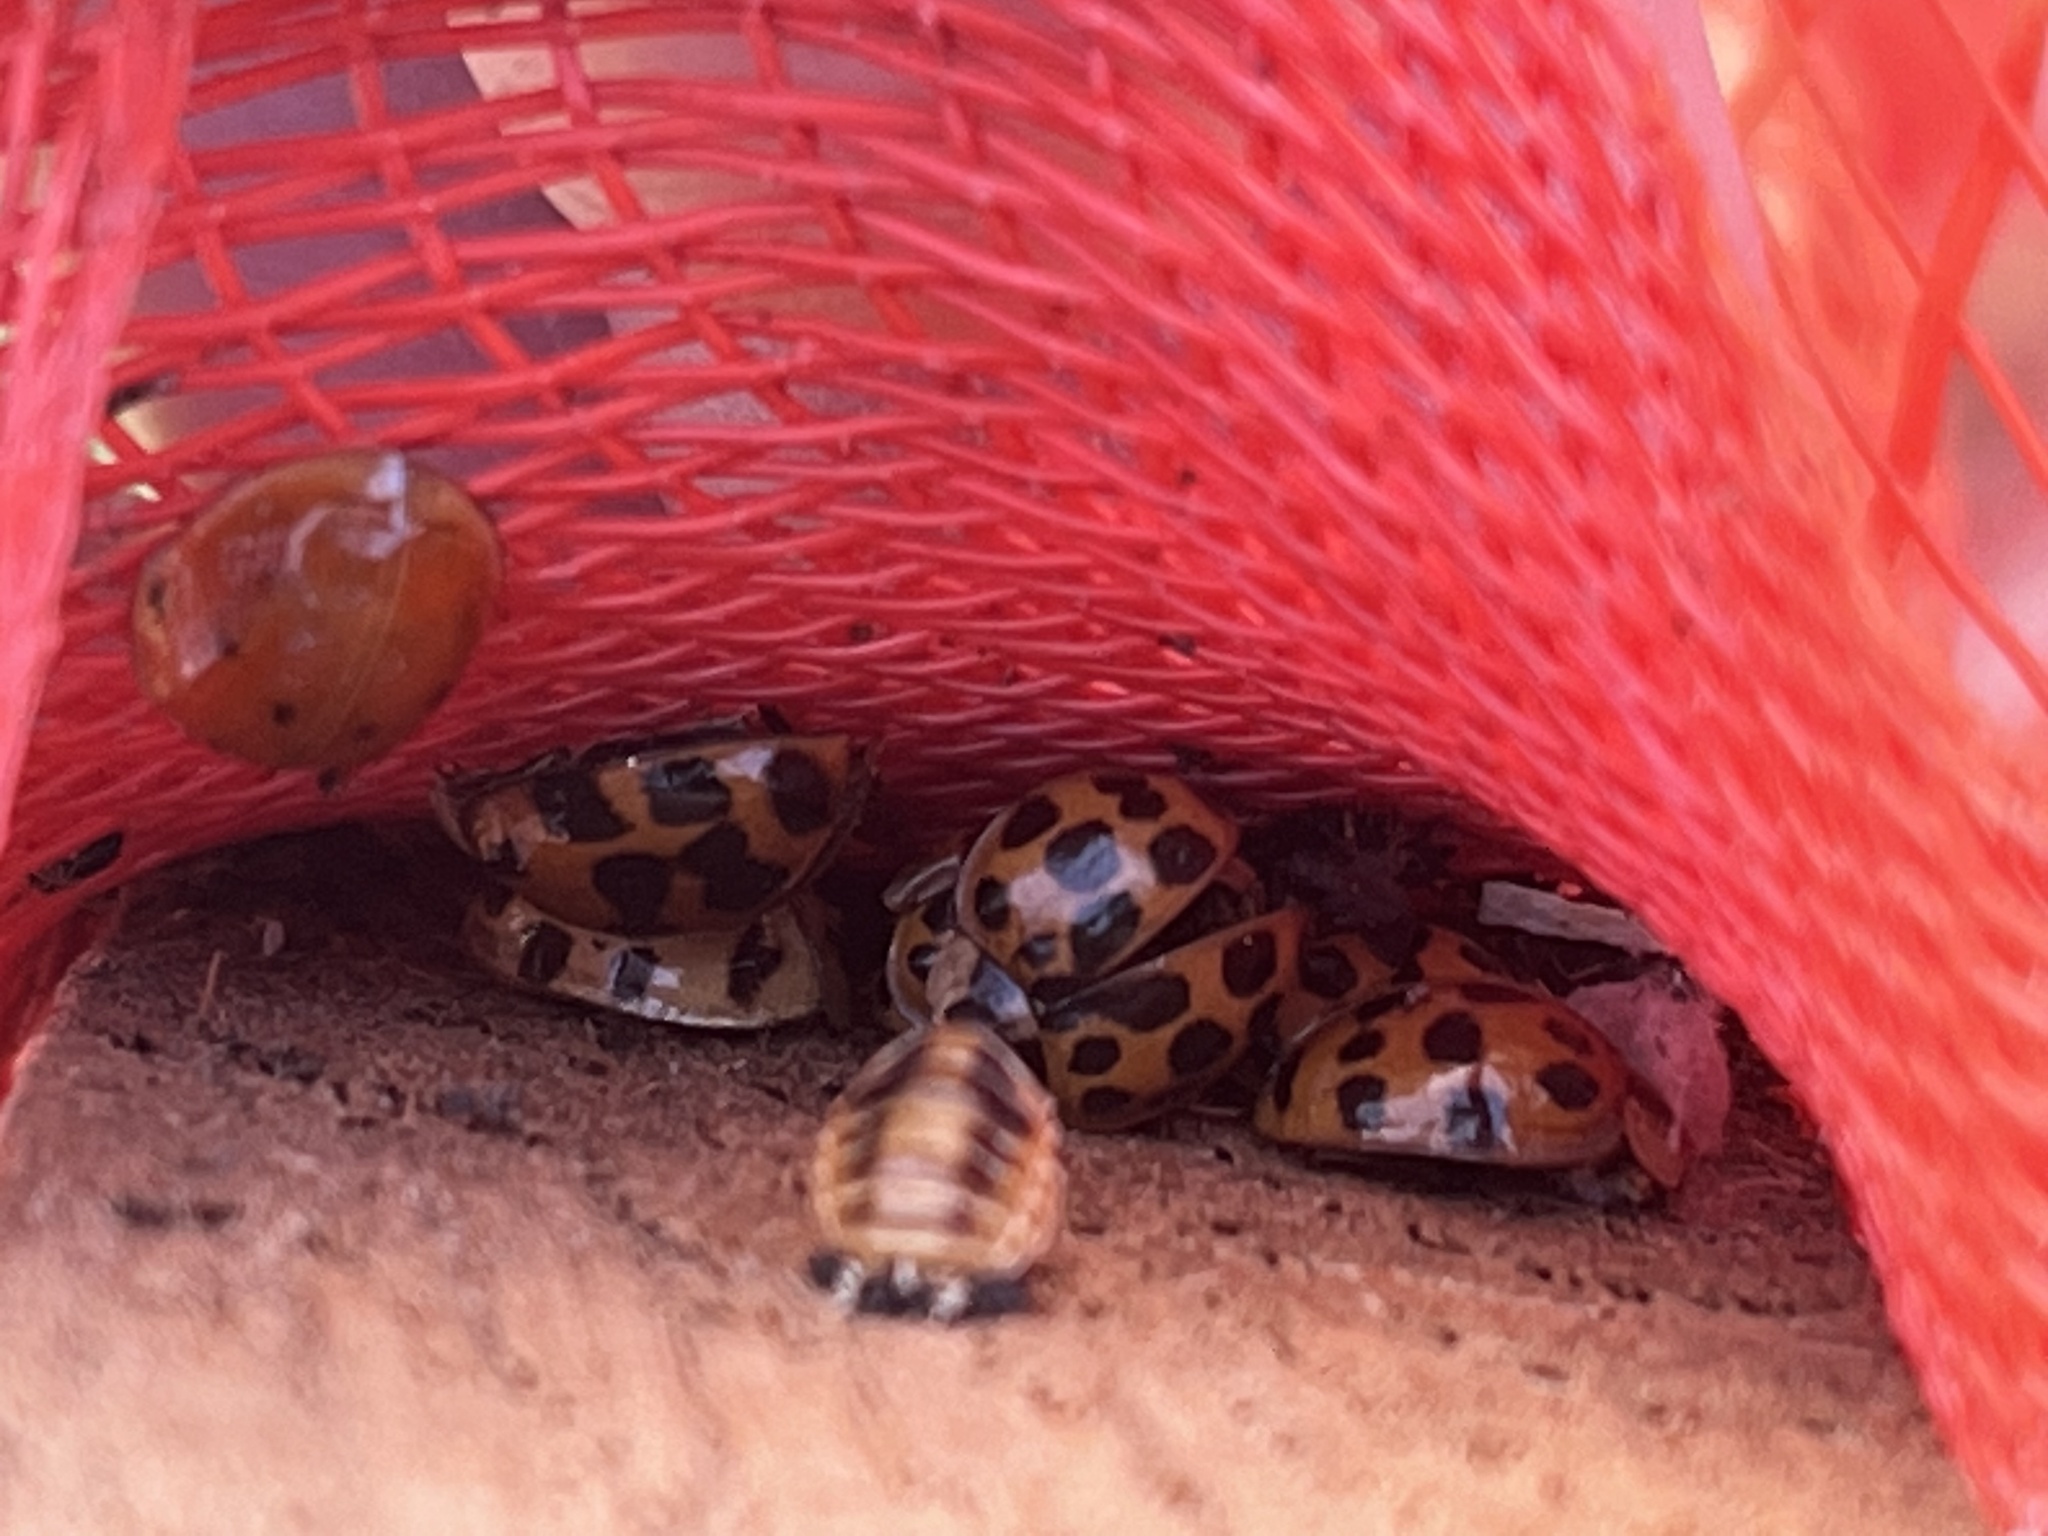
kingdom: Animalia
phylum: Arthropoda
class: Insecta
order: Coleoptera
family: Coccinellidae
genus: Harmonia
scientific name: Harmonia axyridis
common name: Harlequin ladybird
